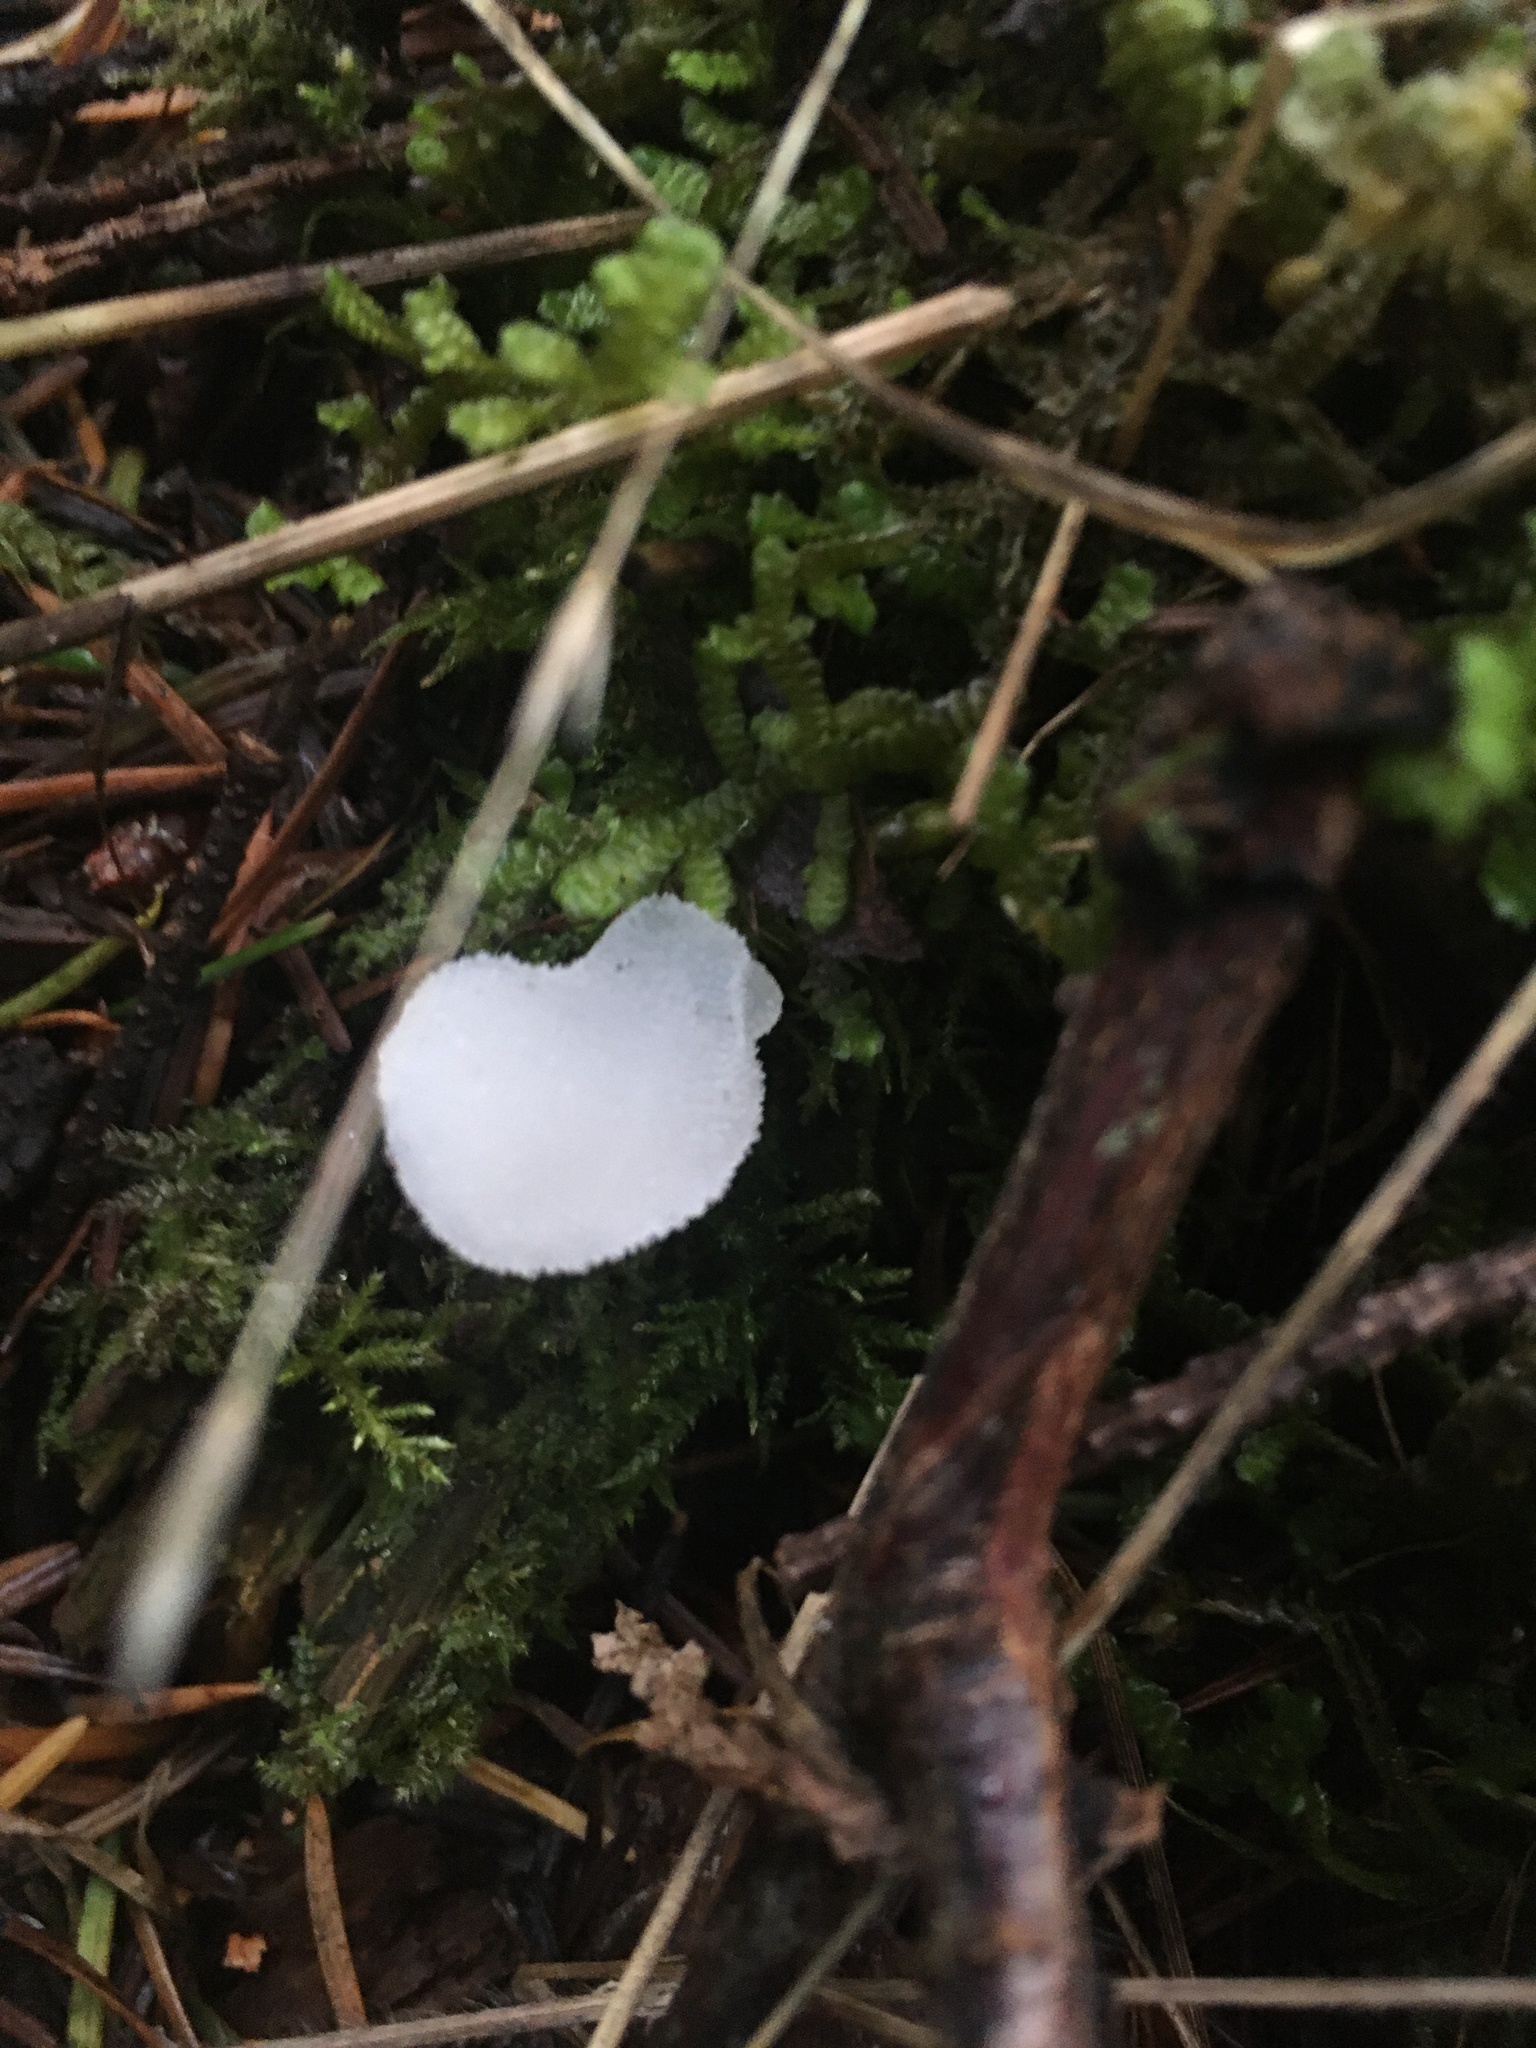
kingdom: Fungi
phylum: Basidiomycota
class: Agaricomycetes
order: Auriculariales
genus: Pseudohydnum
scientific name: Pseudohydnum gelatinosum
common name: Jelly tongue
